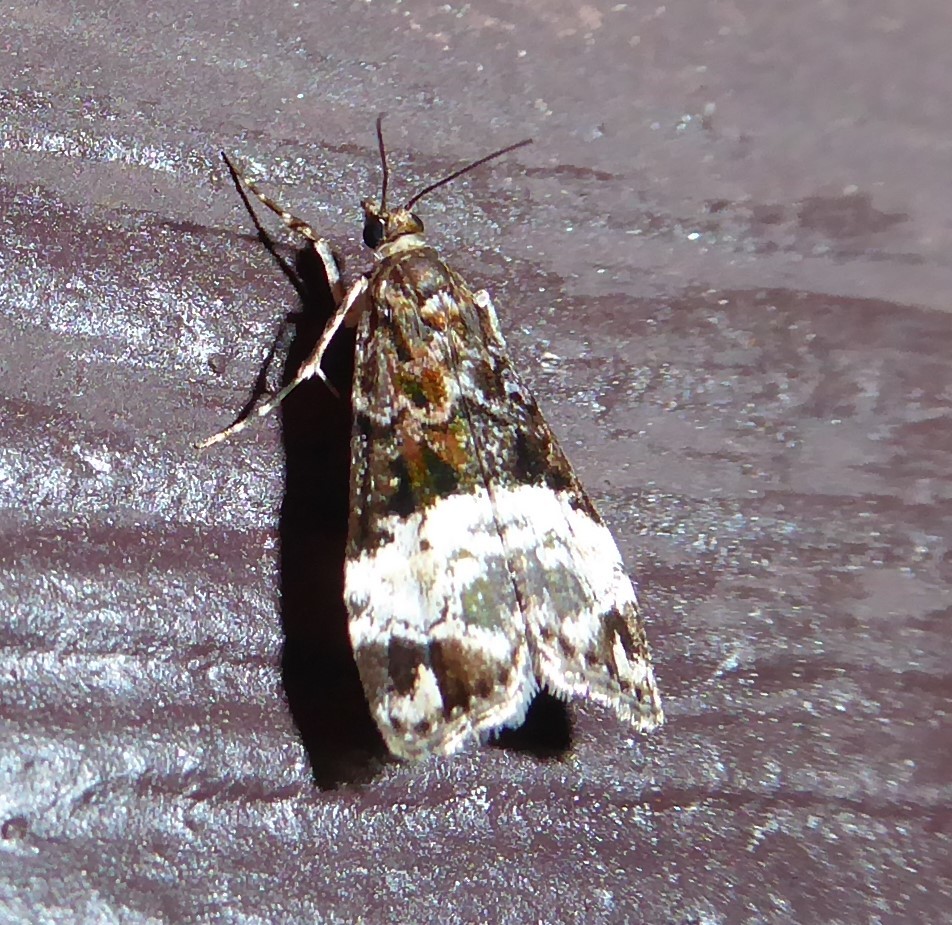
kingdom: Animalia
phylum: Arthropoda
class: Insecta
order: Lepidoptera
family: Crambidae
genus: Scoparia
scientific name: Scoparia minusculalis
